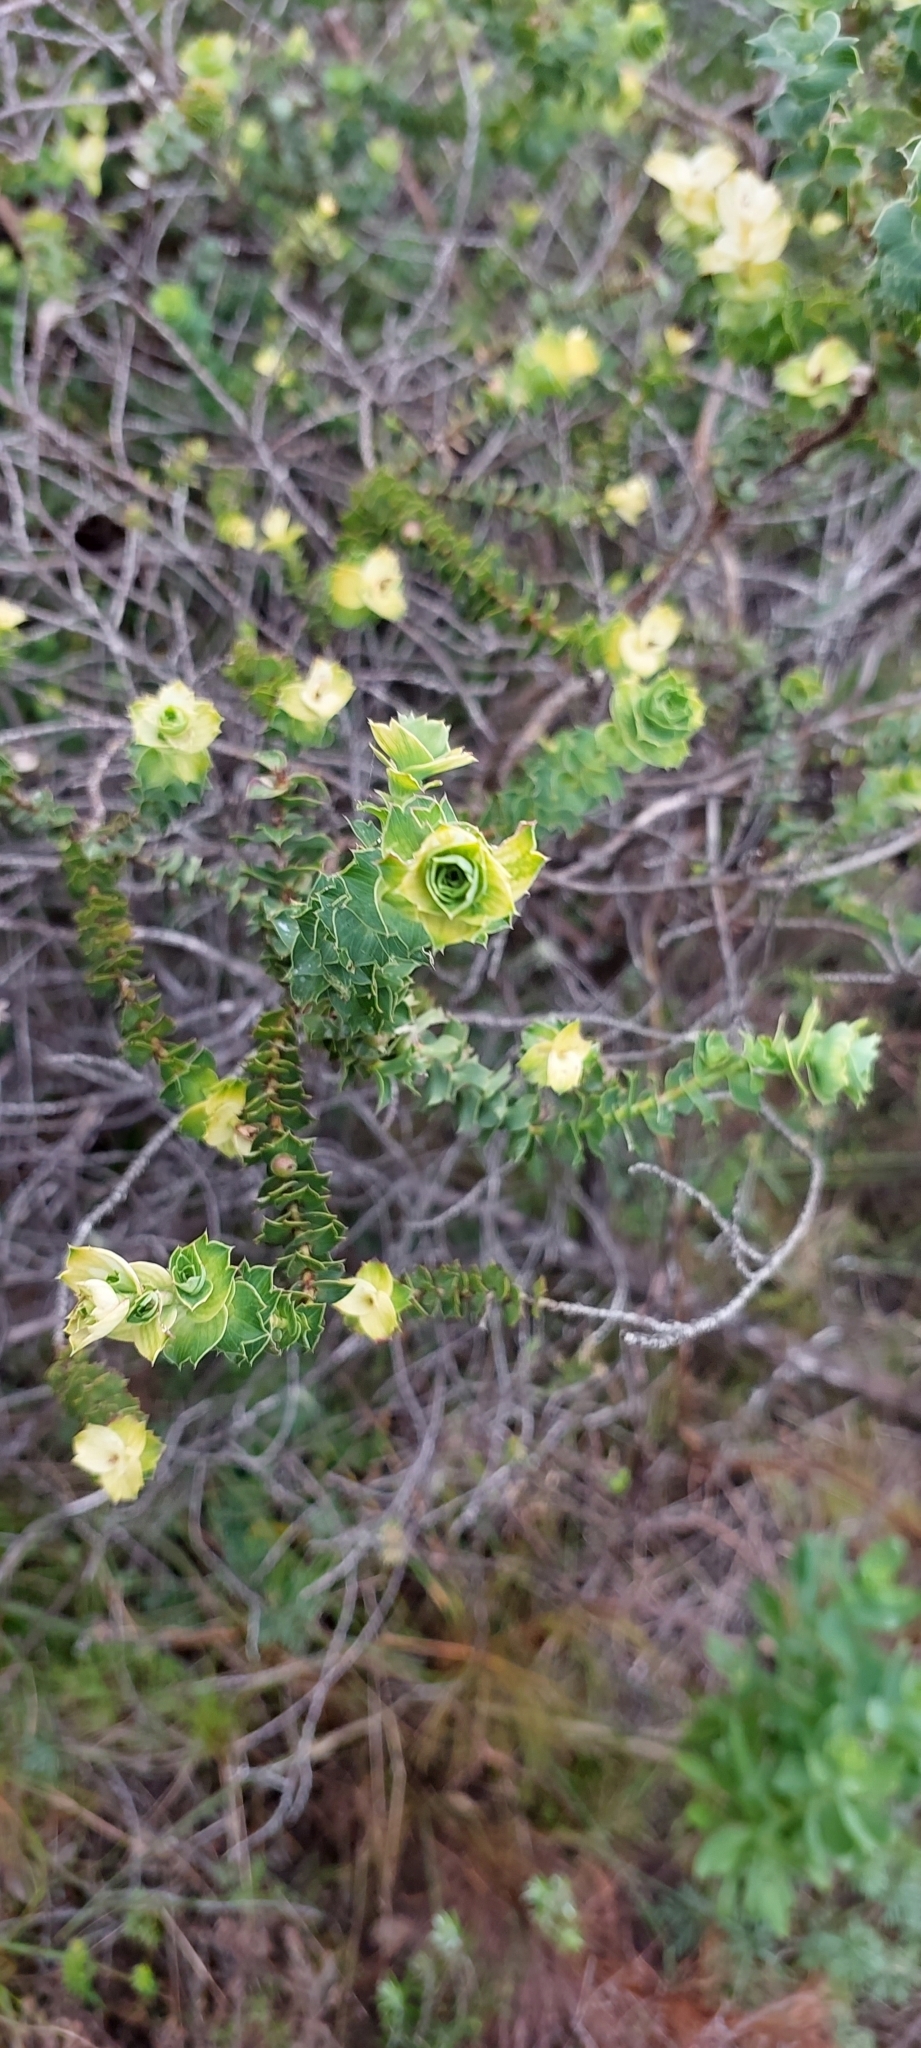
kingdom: Plantae
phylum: Tracheophyta
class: Magnoliopsida
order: Rosales
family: Rosaceae
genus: Cliffortia
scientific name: Cliffortia schlechteri
